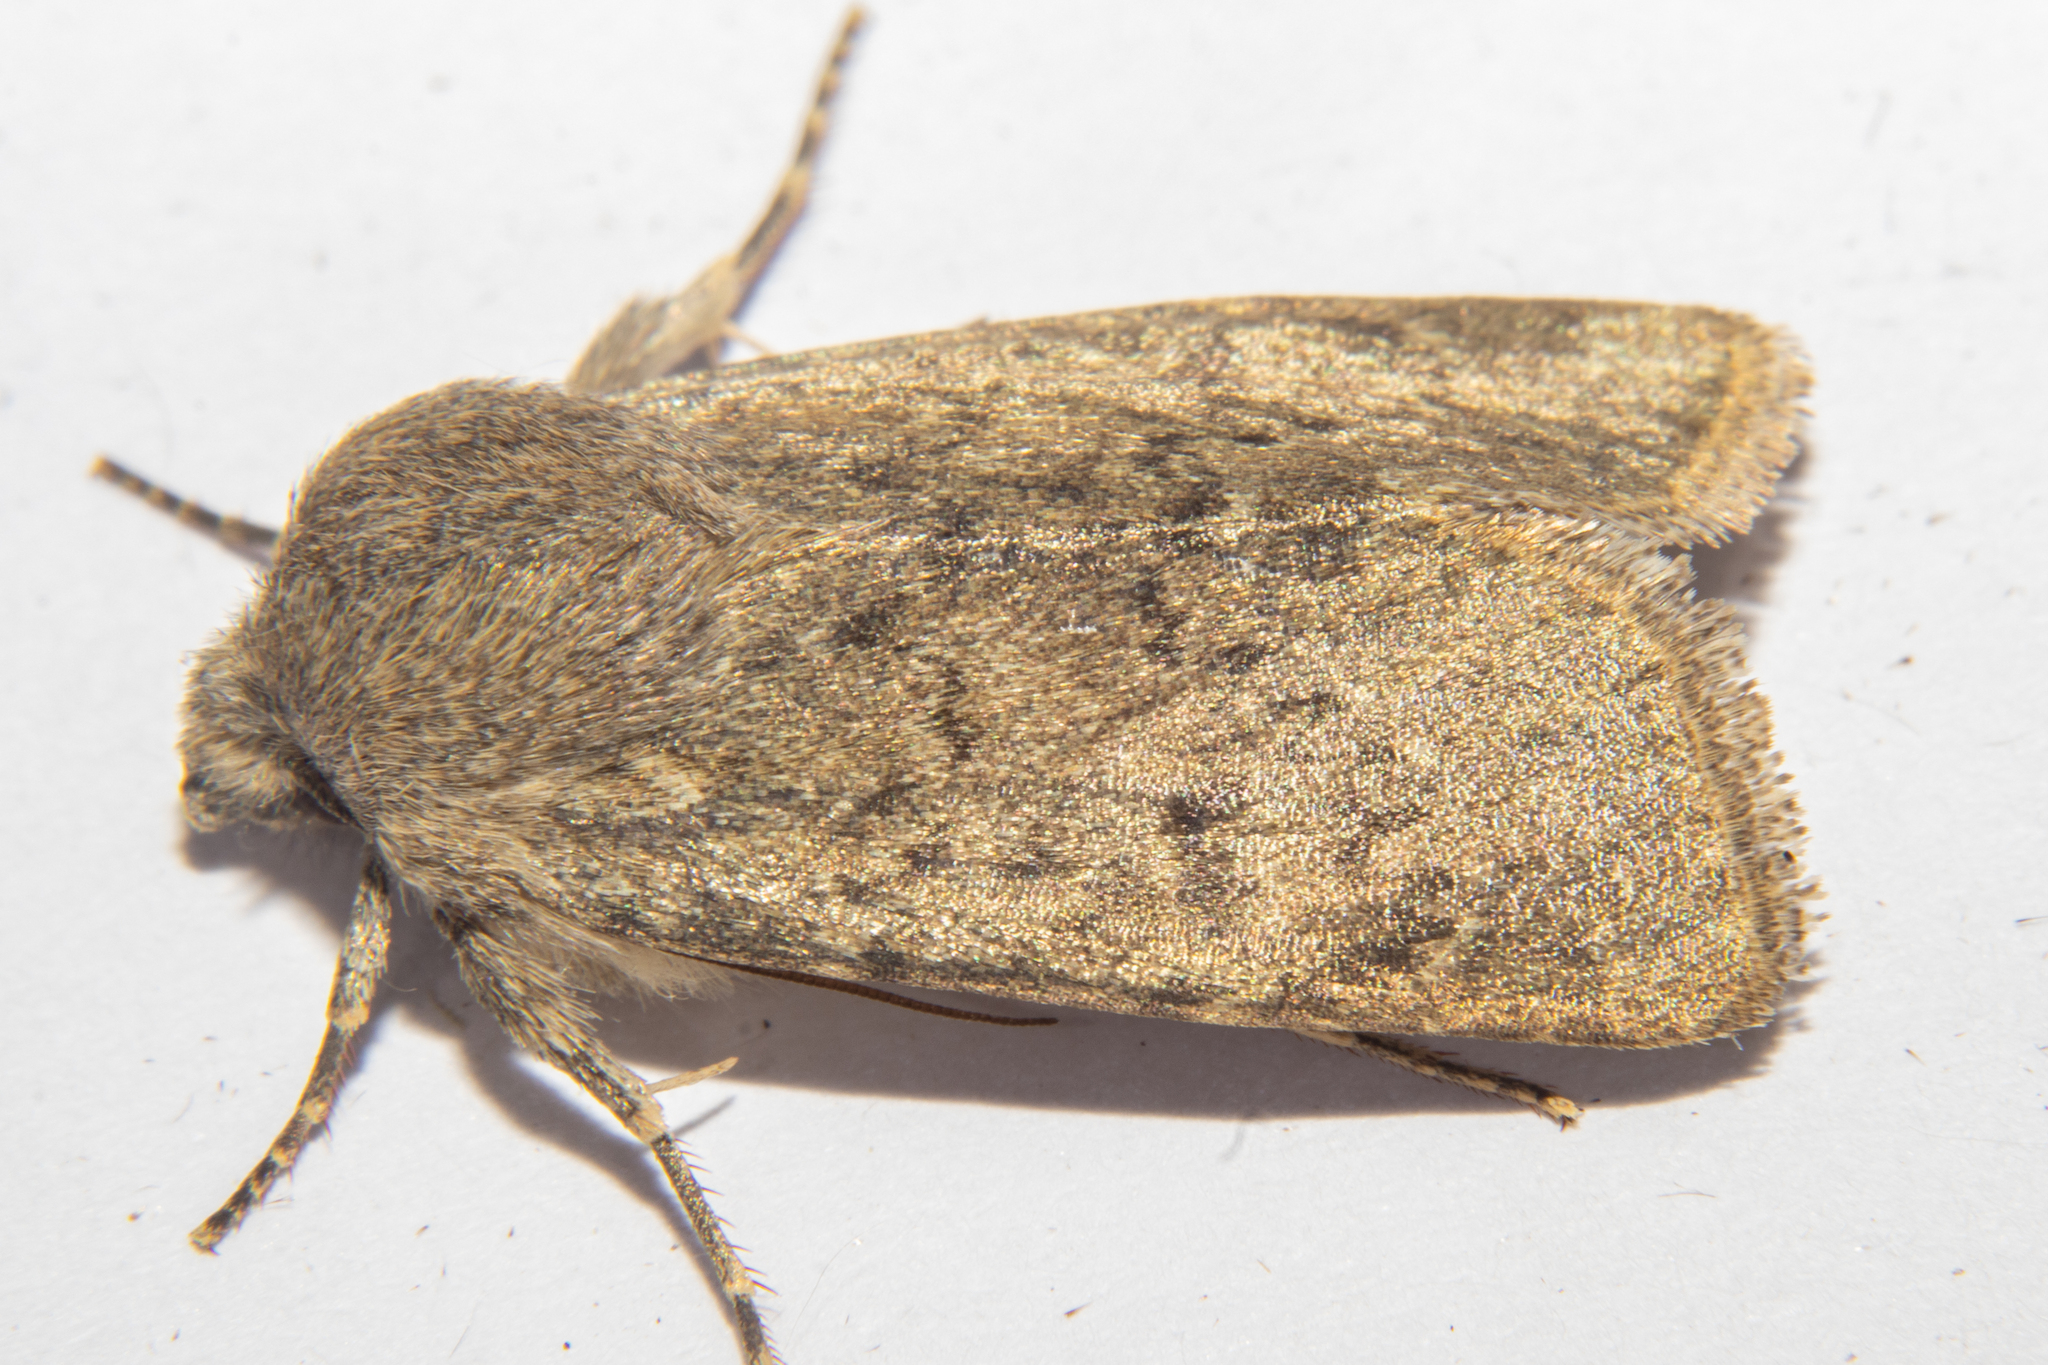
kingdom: Animalia
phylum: Arthropoda
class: Insecta
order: Lepidoptera
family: Noctuidae
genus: Physetica
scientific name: Physetica caerulea
